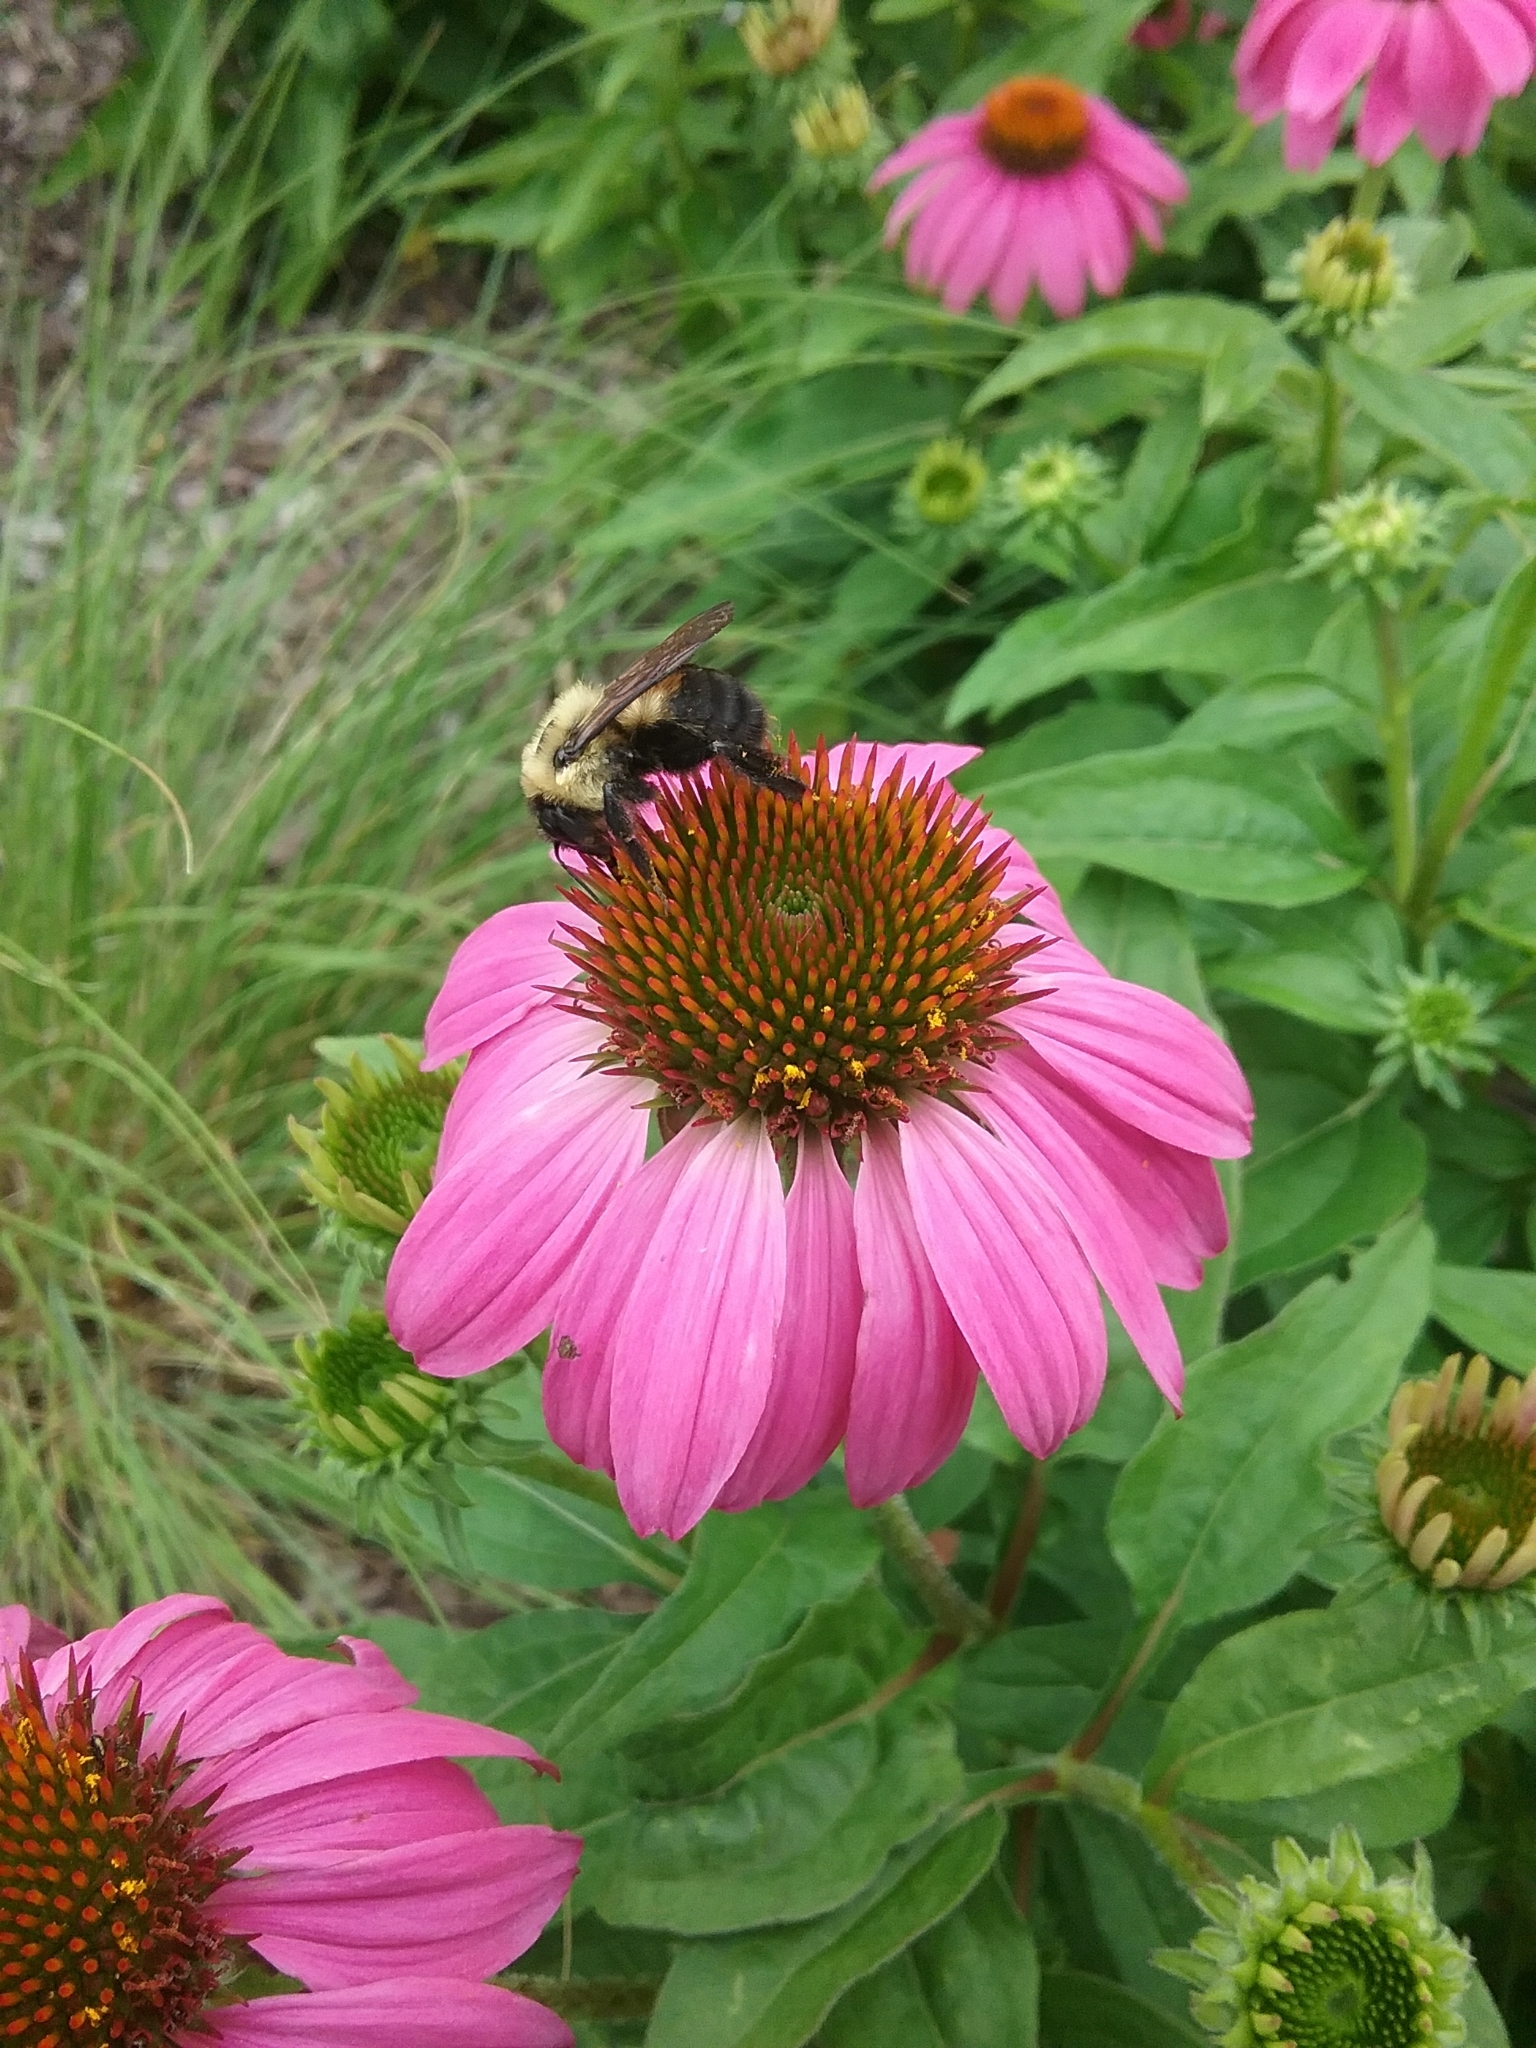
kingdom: Animalia
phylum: Arthropoda
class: Insecta
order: Hymenoptera
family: Apidae
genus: Bombus
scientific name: Bombus griseocollis
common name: Brown-belted bumble bee
